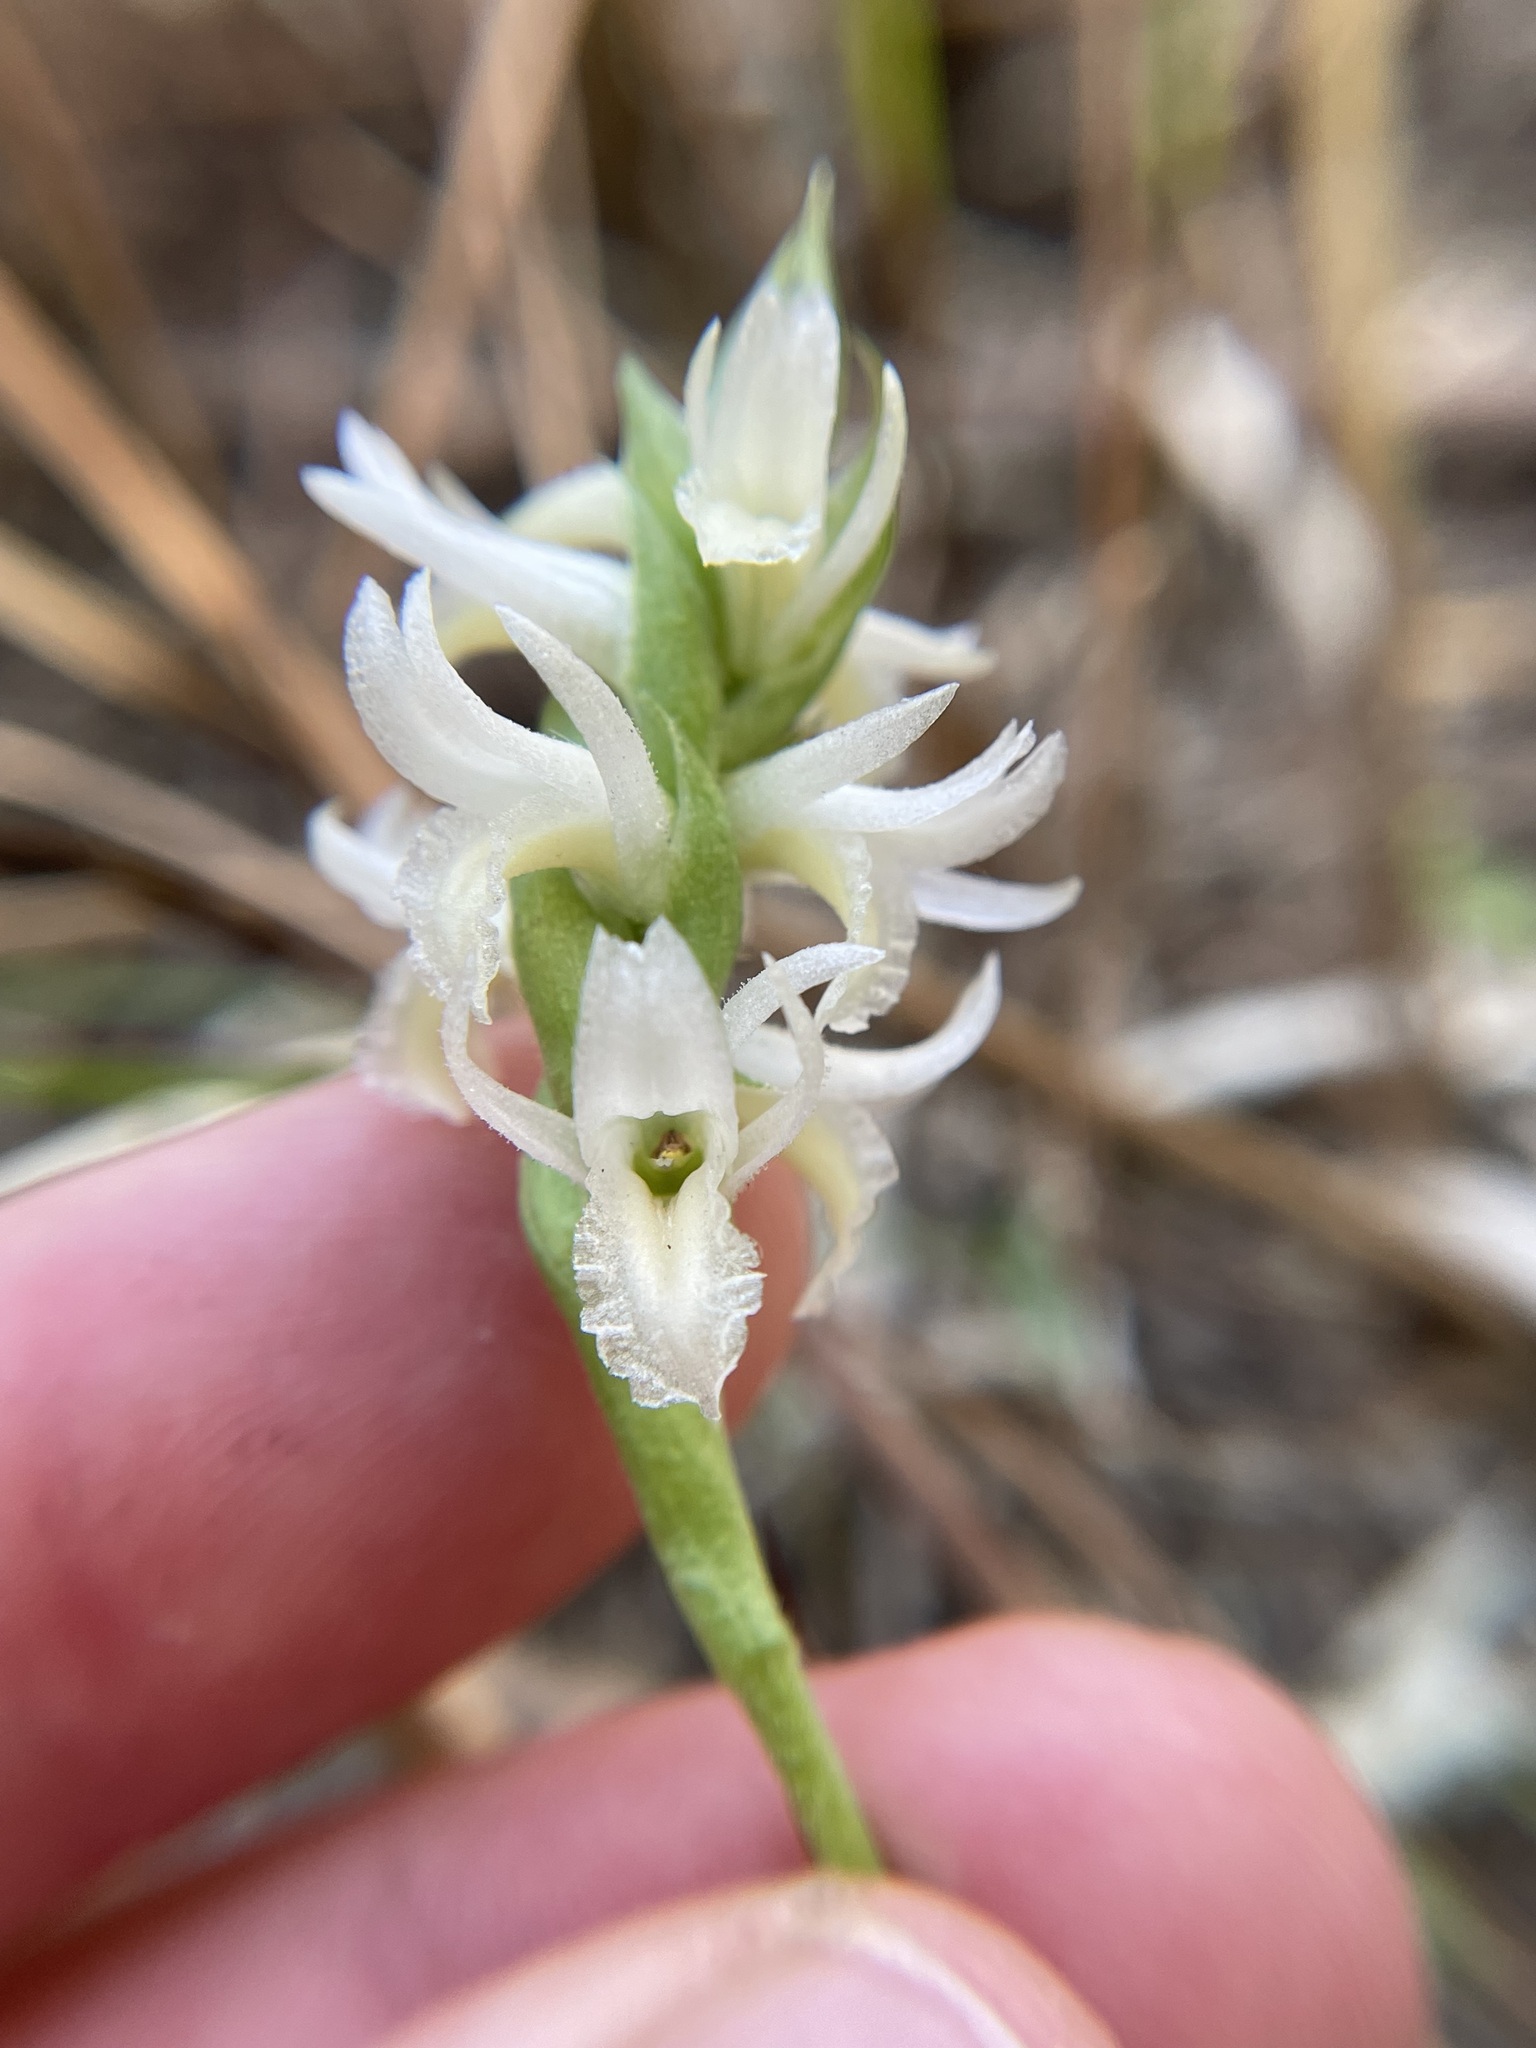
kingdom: Plantae
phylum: Tracheophyta
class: Liliopsida
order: Asparagales
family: Orchidaceae
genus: Spiranthes
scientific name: Spiranthes magnicamporum
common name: Great plains ladies'-tresses
